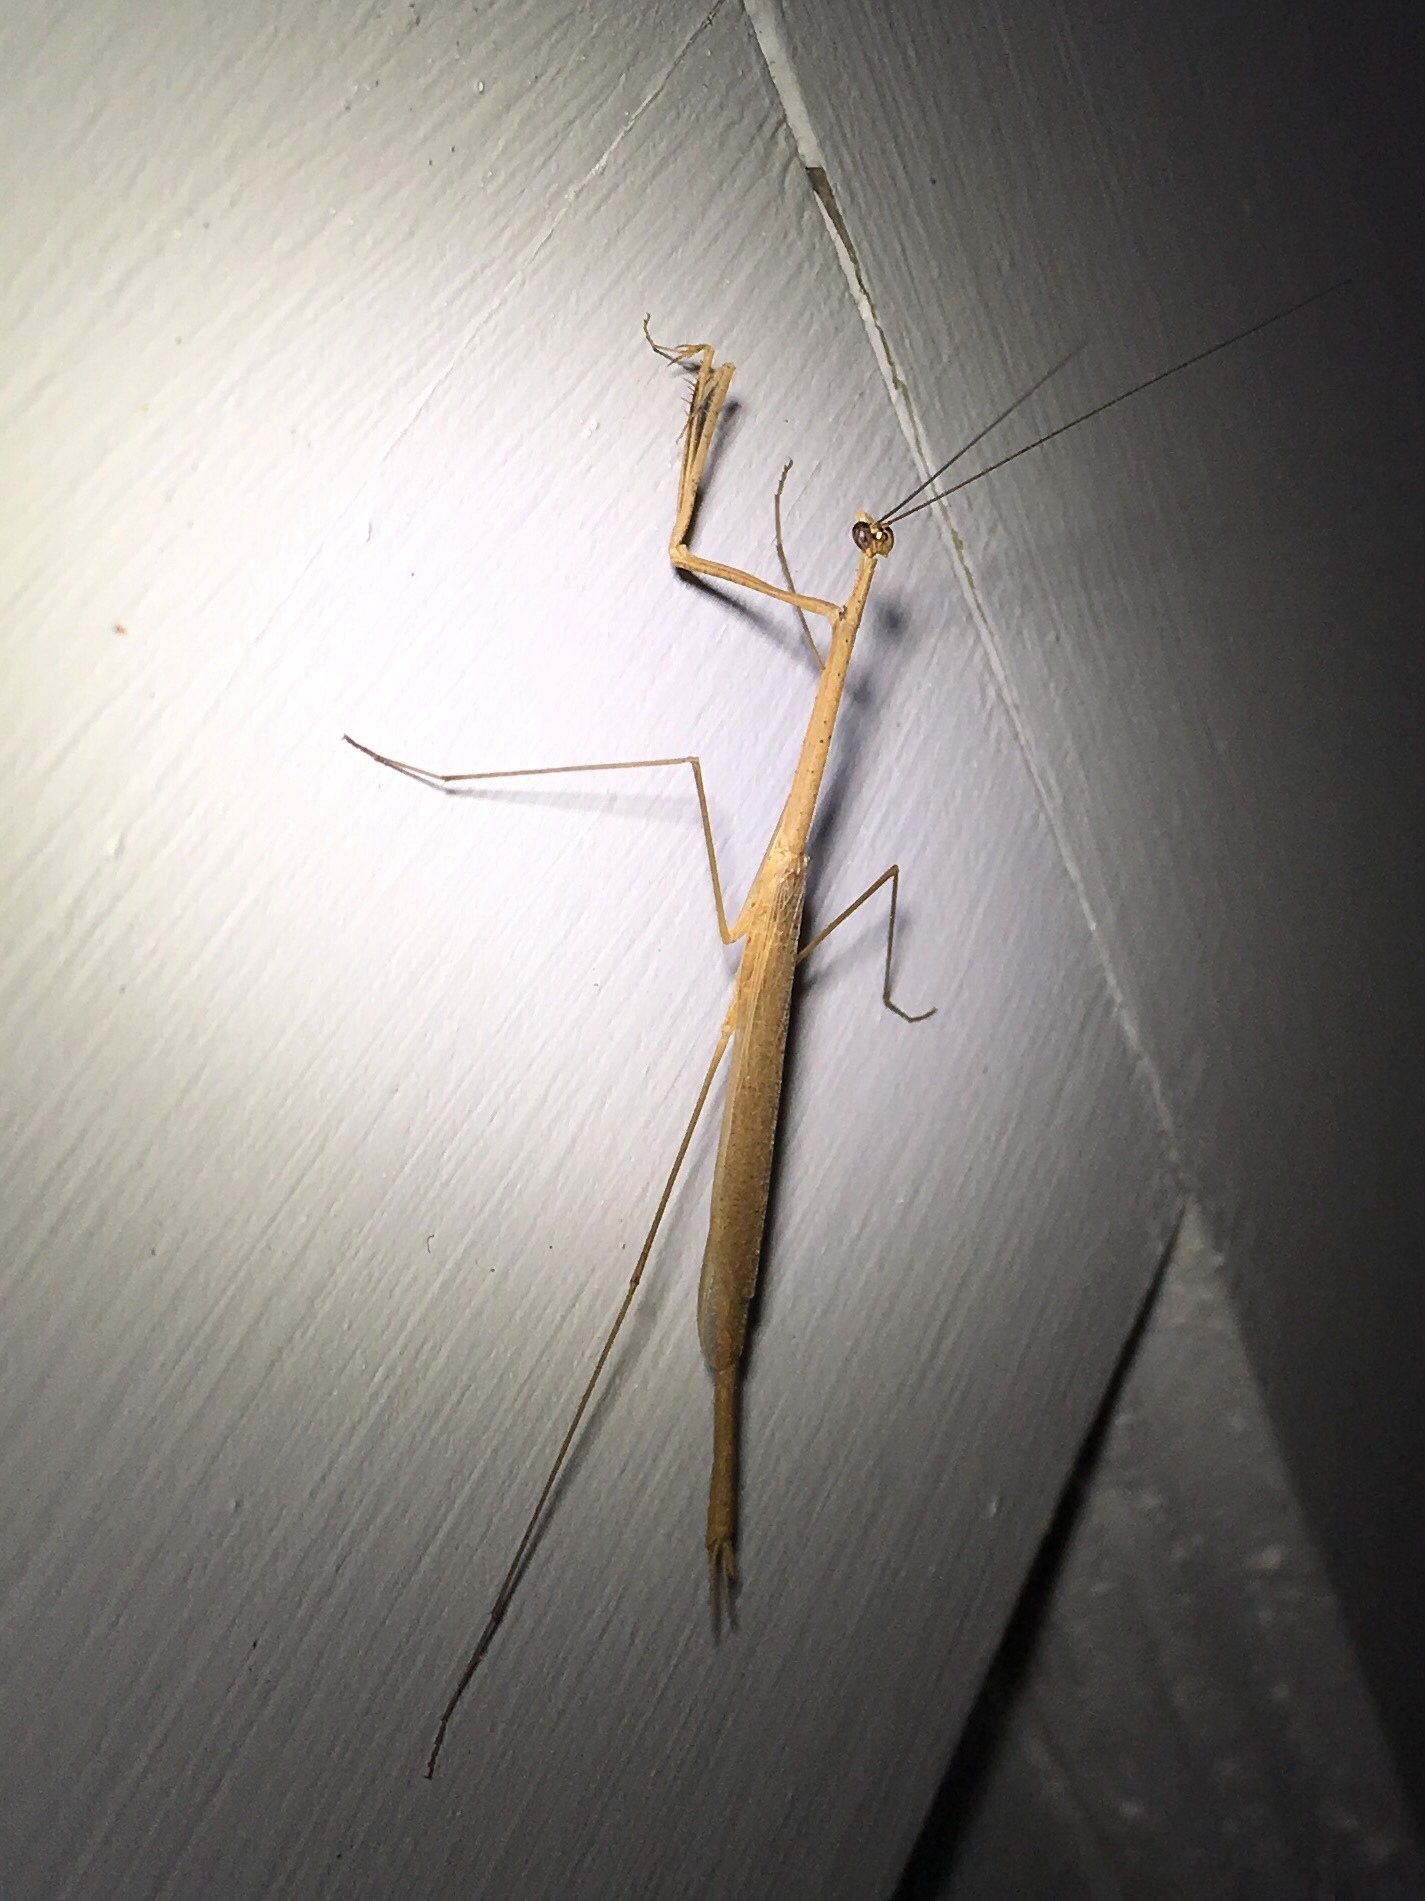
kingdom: Animalia
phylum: Arthropoda
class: Insecta
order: Mantodea
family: Thespidae
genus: Thesprotia
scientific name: Thesprotia graminis
